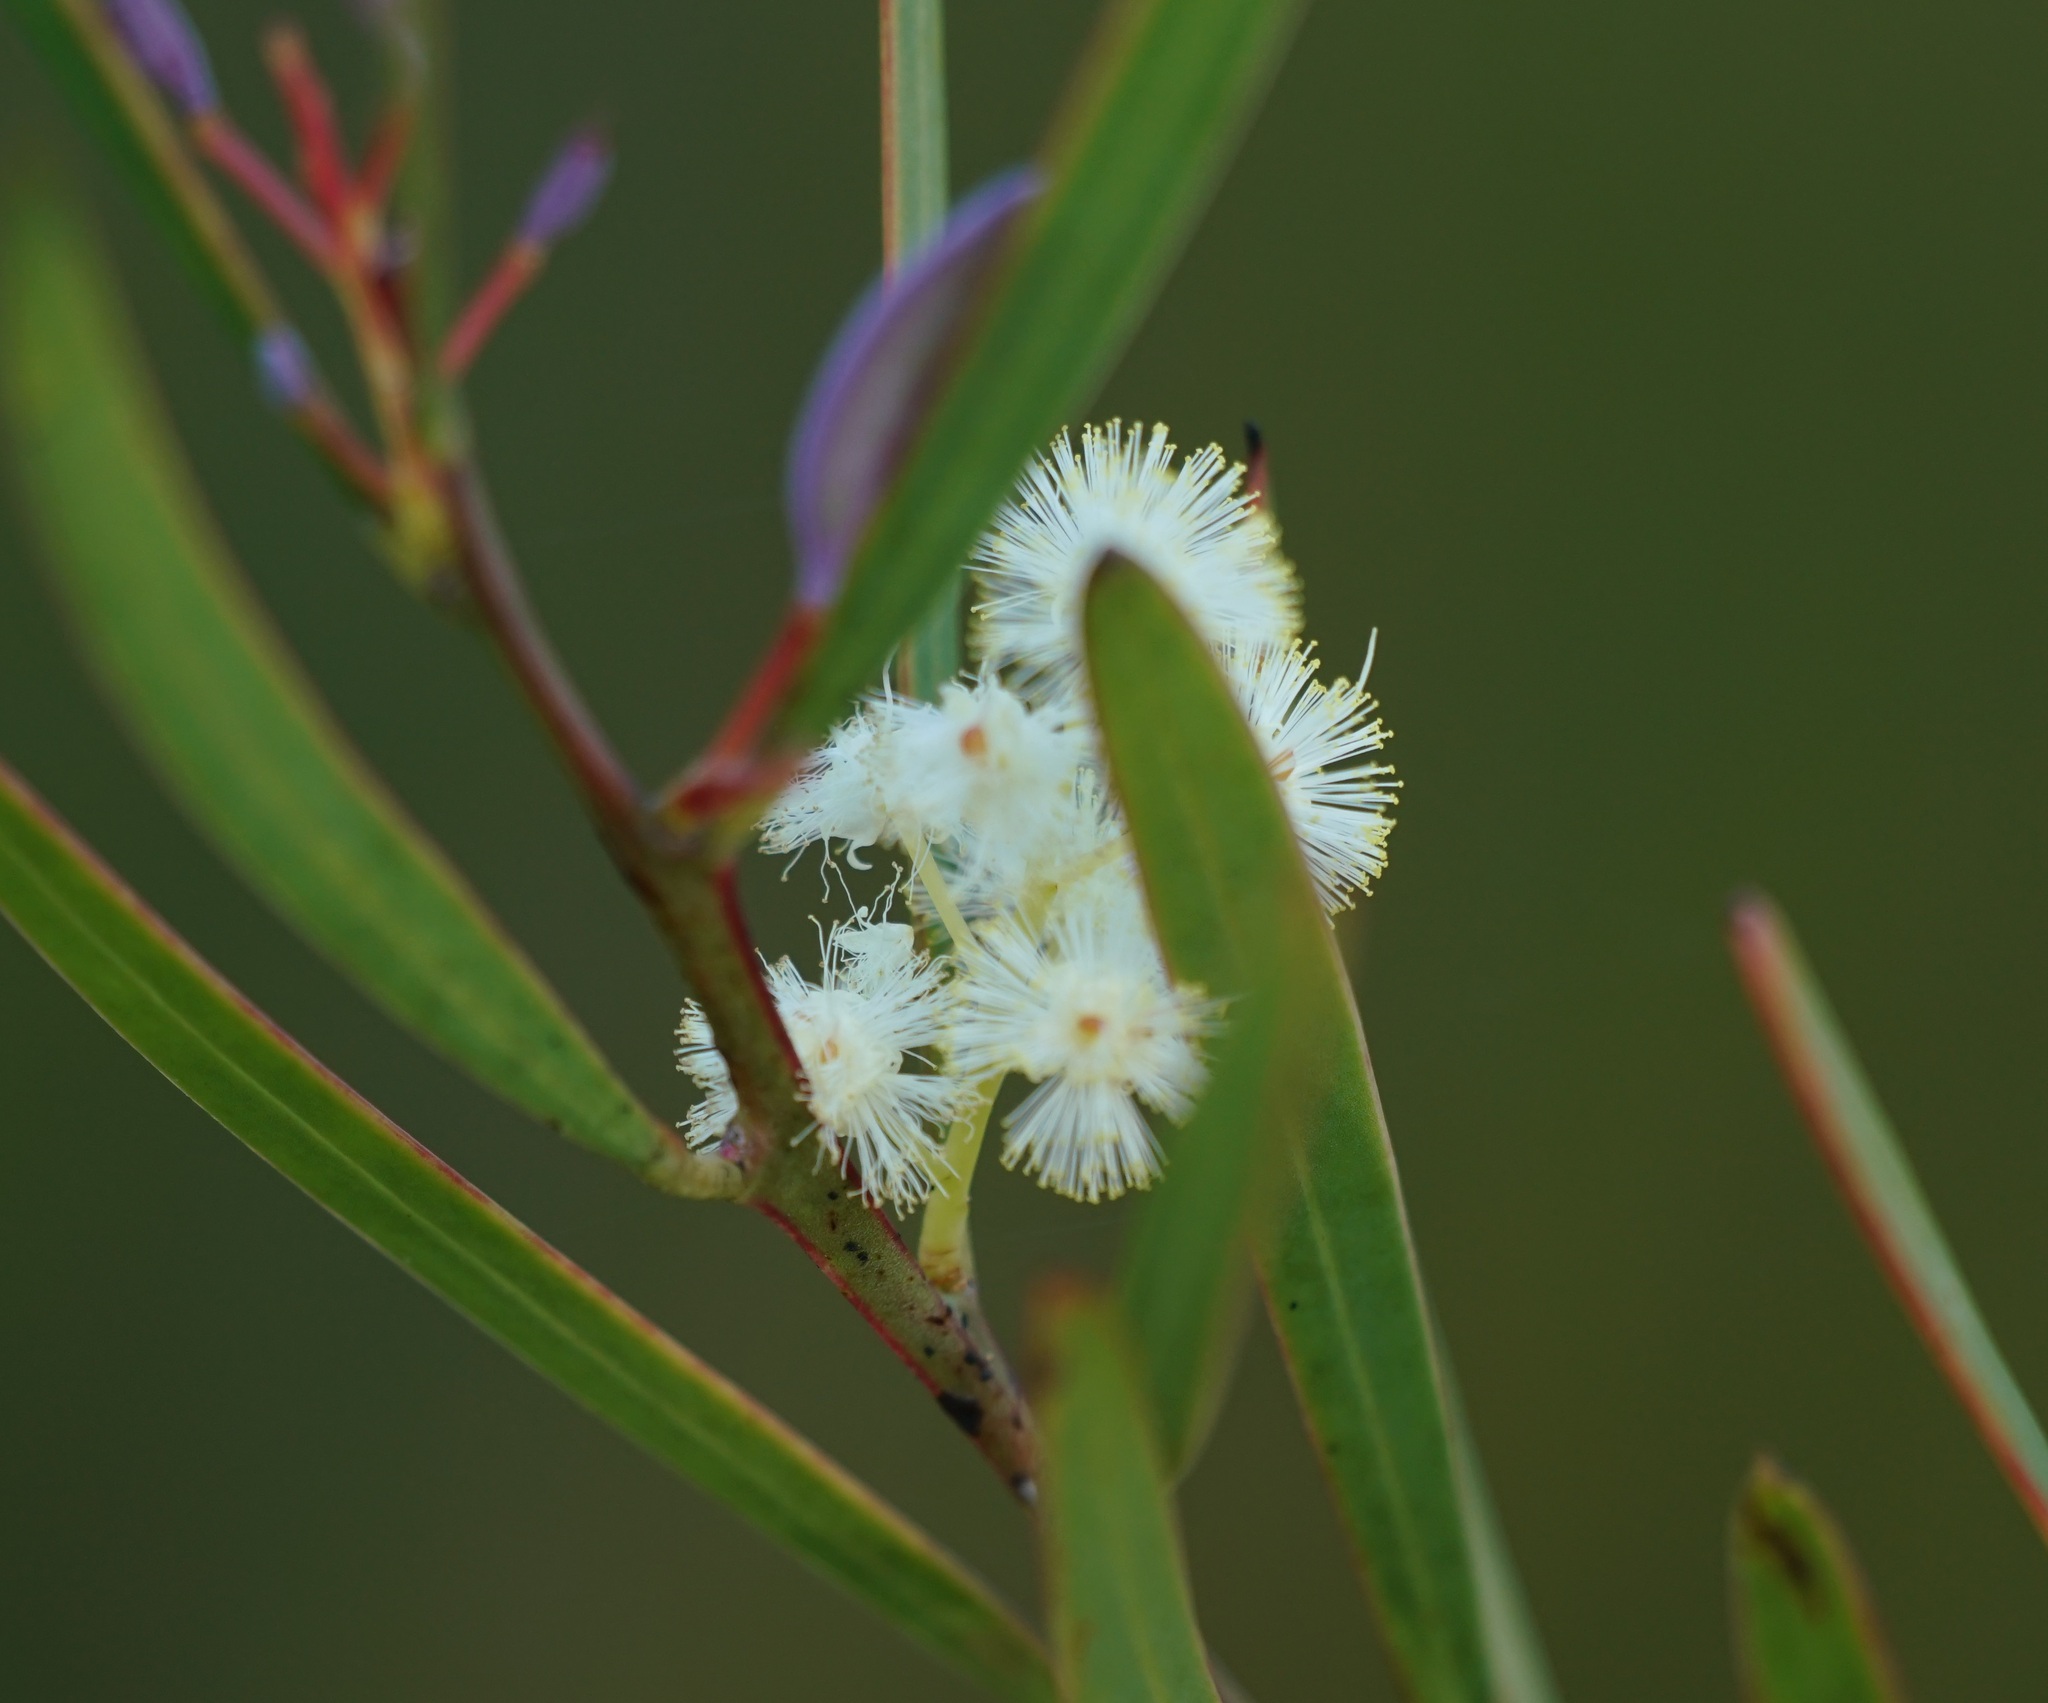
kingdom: Plantae
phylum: Tracheophyta
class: Magnoliopsida
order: Fabales
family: Fabaceae
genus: Acacia
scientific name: Acacia suaveolens
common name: Sweet acacia
